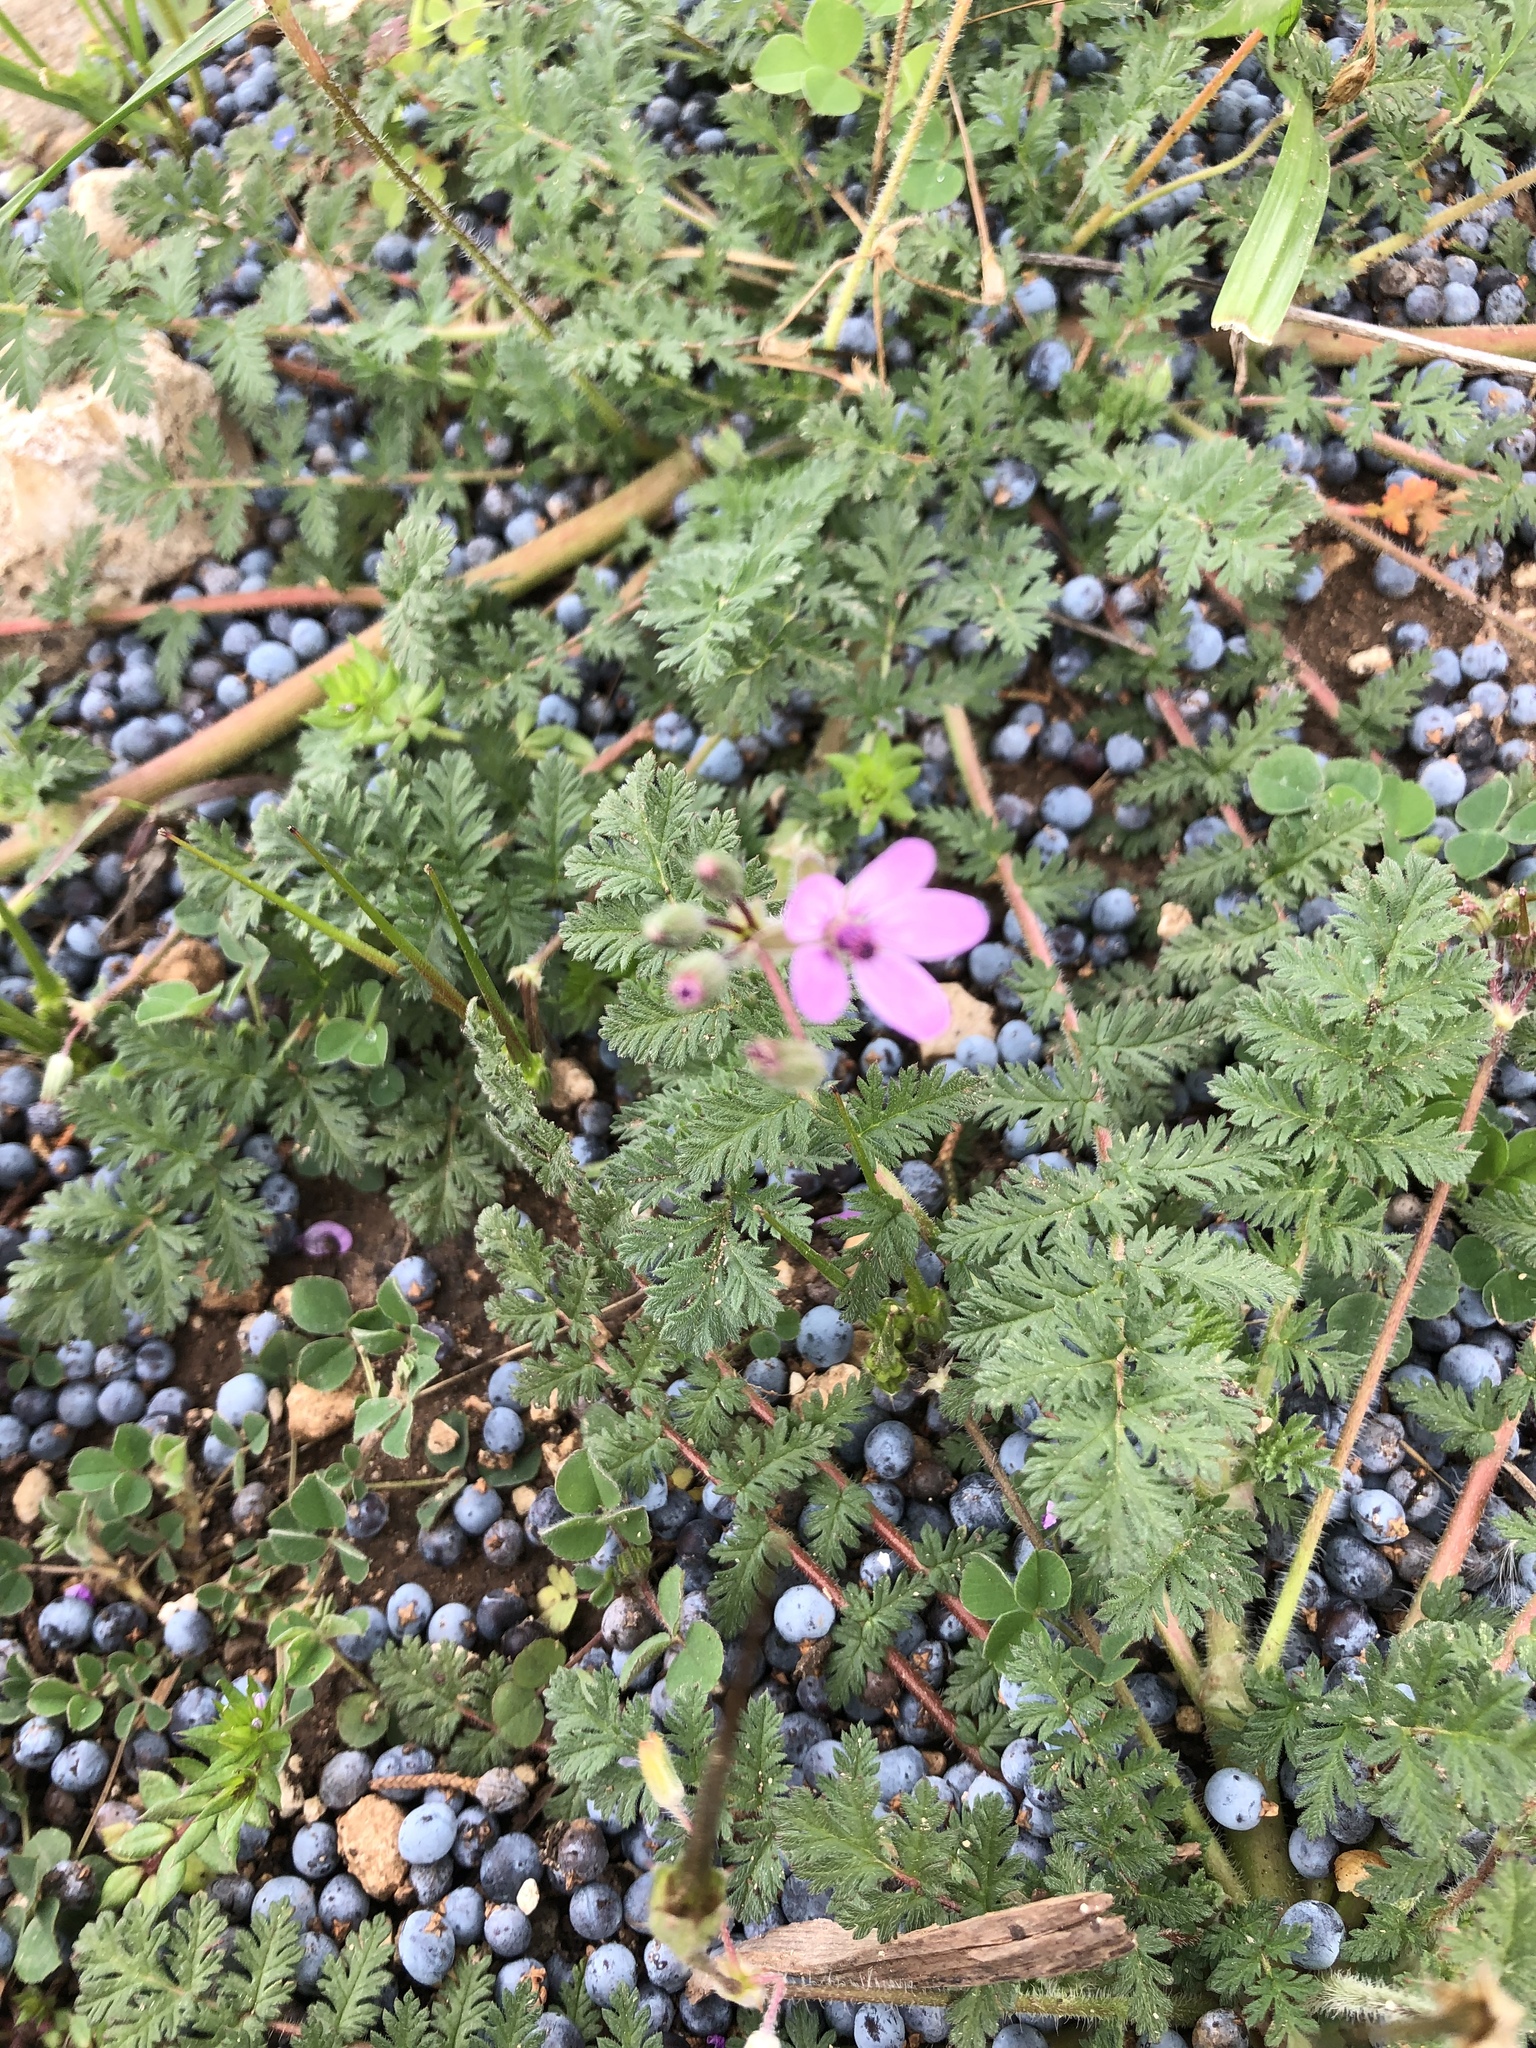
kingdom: Plantae
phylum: Tracheophyta
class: Magnoliopsida
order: Geraniales
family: Geraniaceae
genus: Erodium
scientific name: Erodium cicutarium
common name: Common stork's-bill
